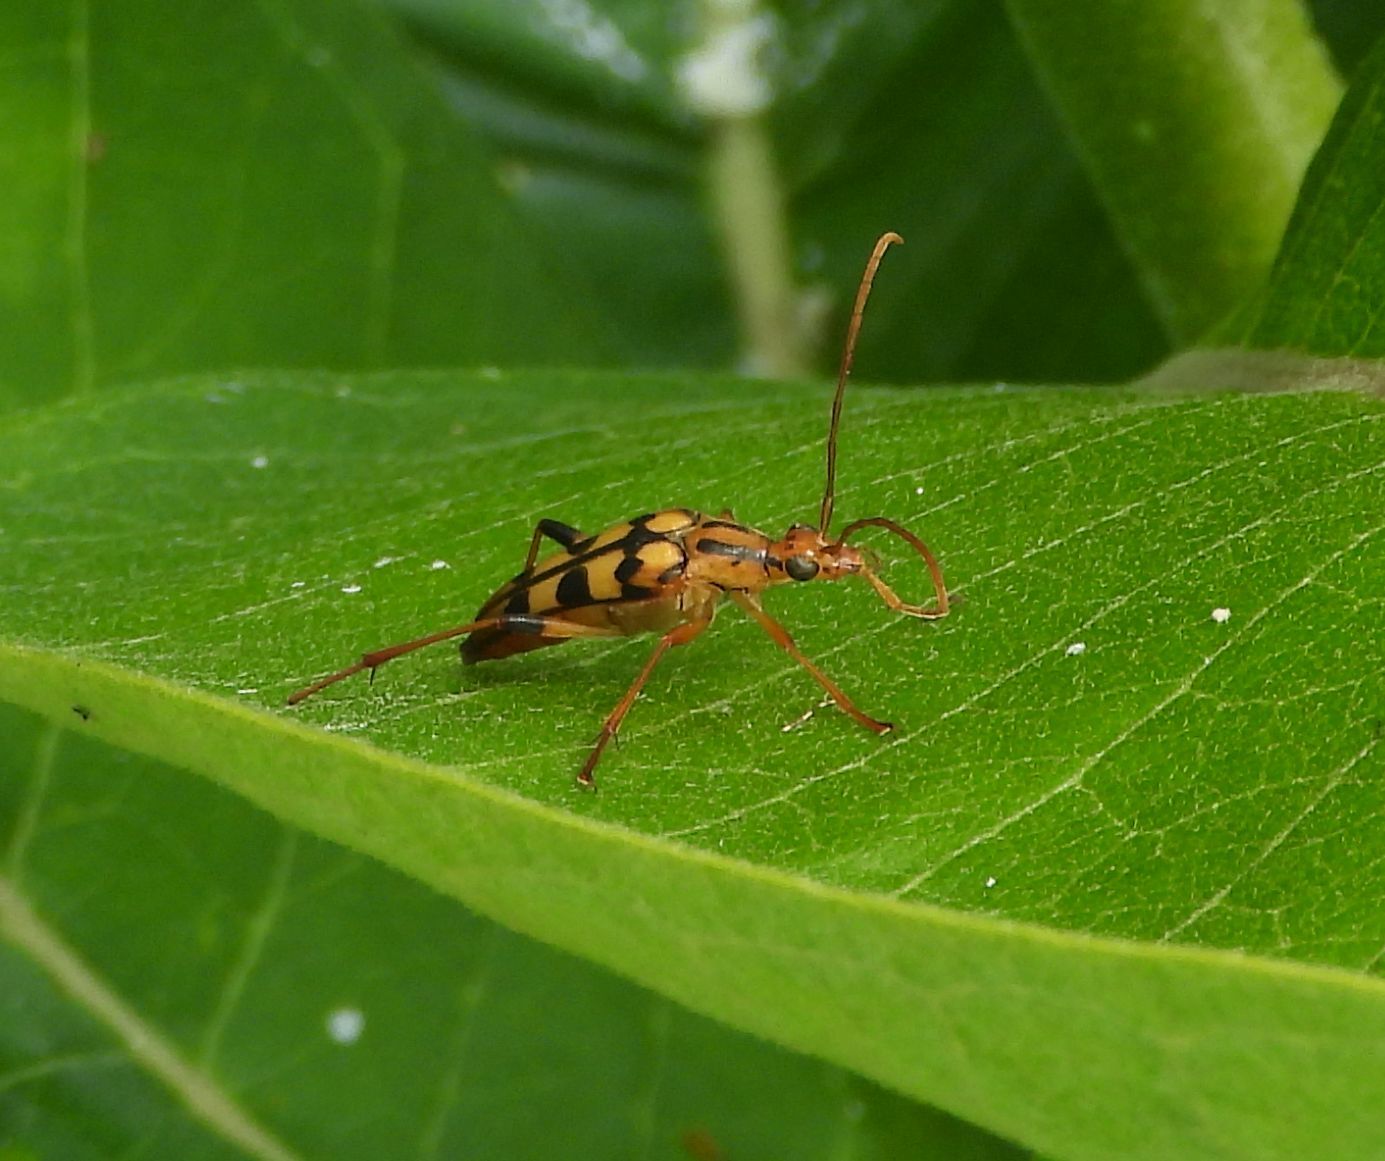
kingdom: Animalia
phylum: Arthropoda
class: Insecta
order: Coleoptera
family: Cerambycidae
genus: Strangalia
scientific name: Strangalia luteicornis
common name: Yellow-horned flower longhorn beetle
